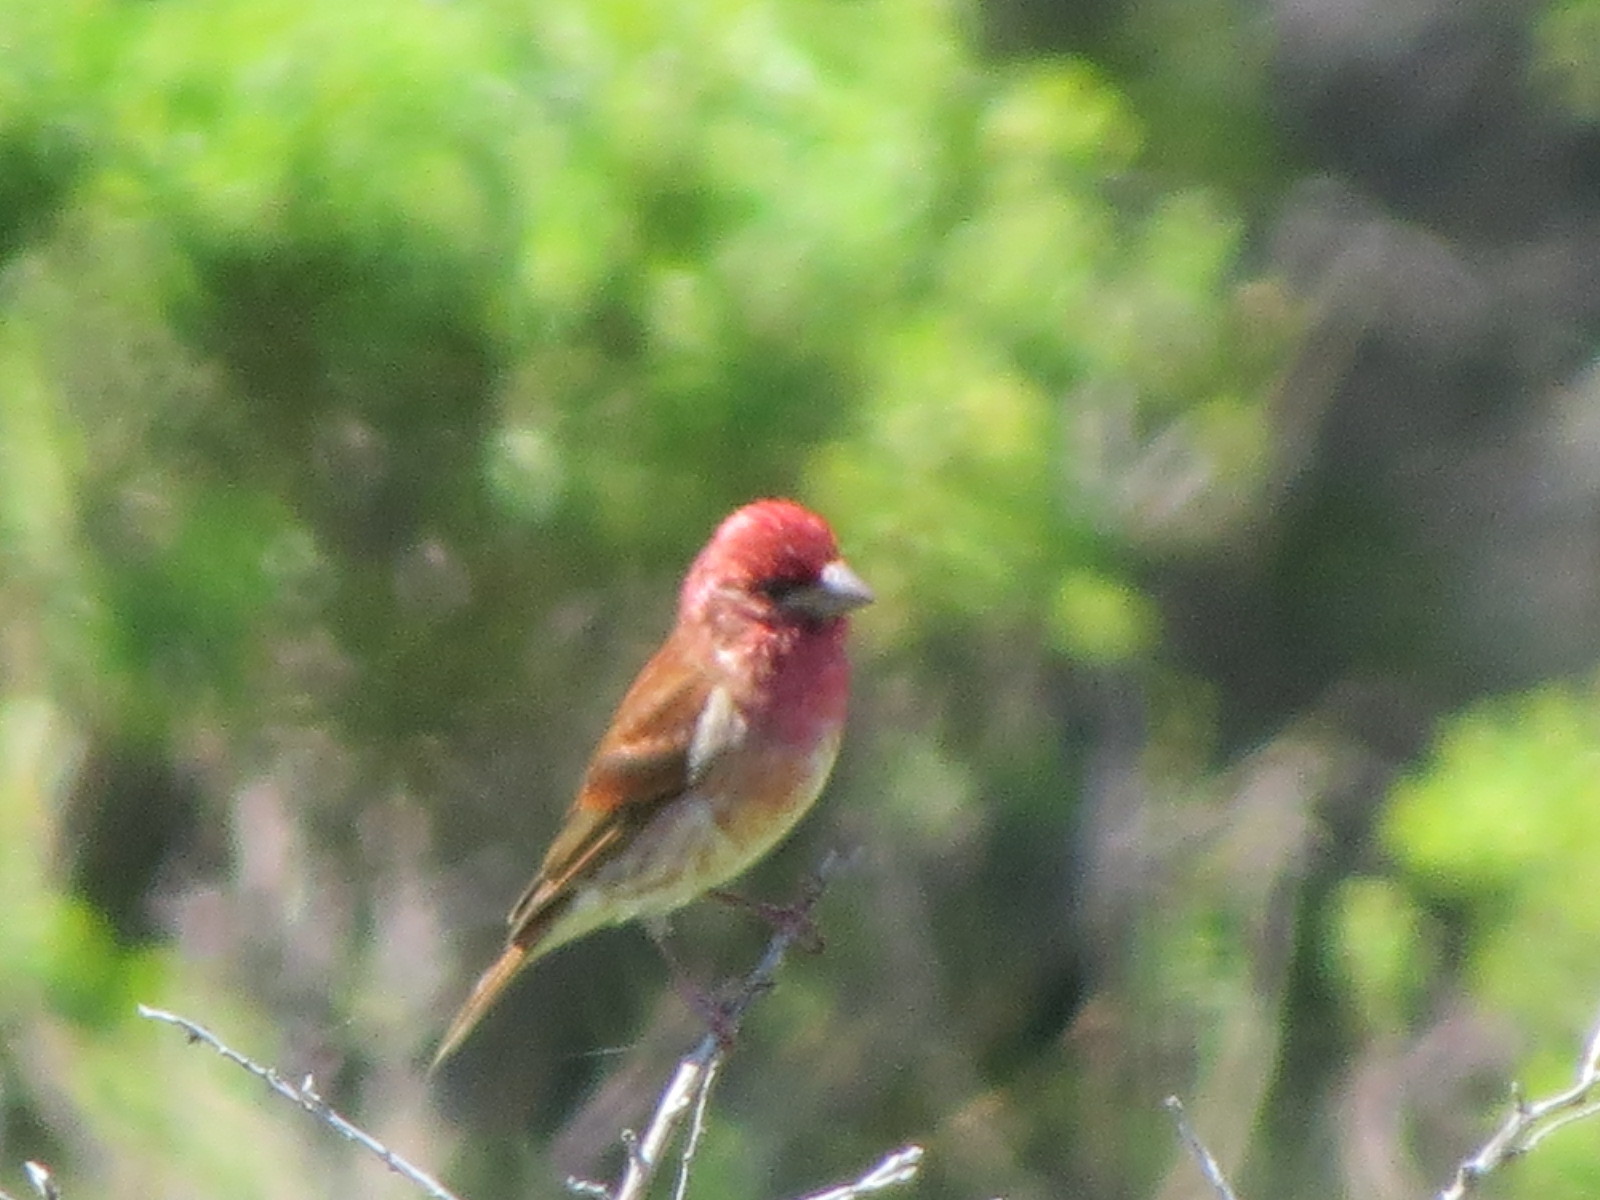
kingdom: Animalia
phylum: Chordata
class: Aves
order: Passeriformes
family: Fringillidae
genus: Haemorhous
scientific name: Haemorhous purpureus
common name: Purple finch
